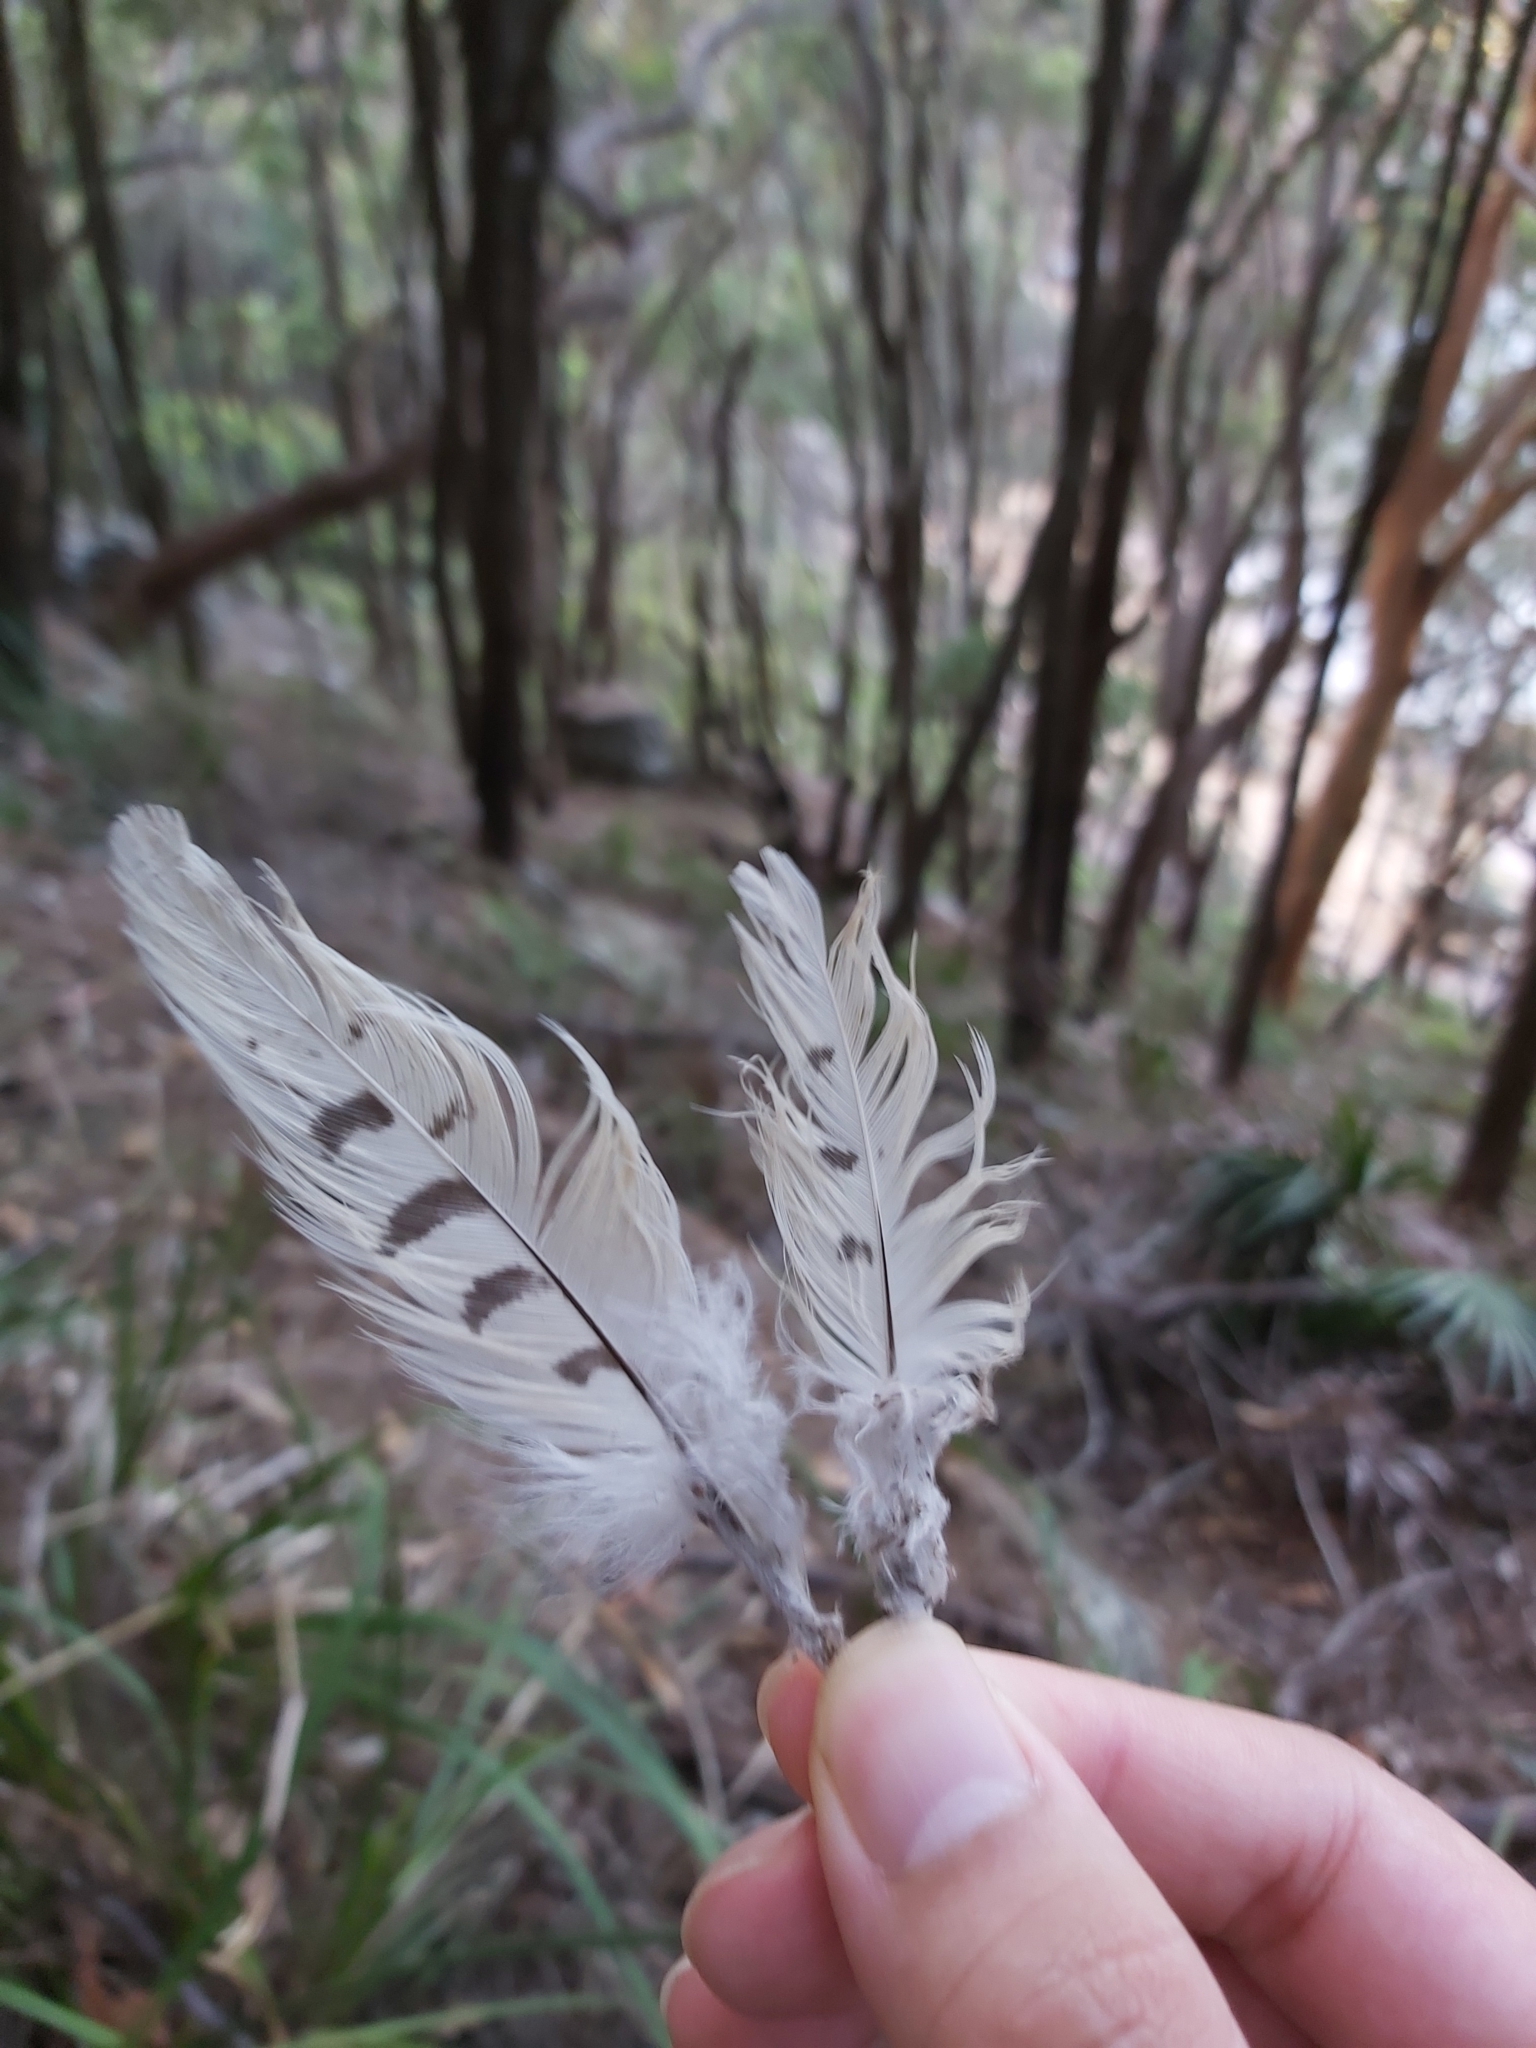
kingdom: Animalia
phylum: Chordata
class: Aves
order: Cuculiformes
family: Cuculidae
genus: Cuculus
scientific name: Cuculus optatus
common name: Oriental cuckoo
